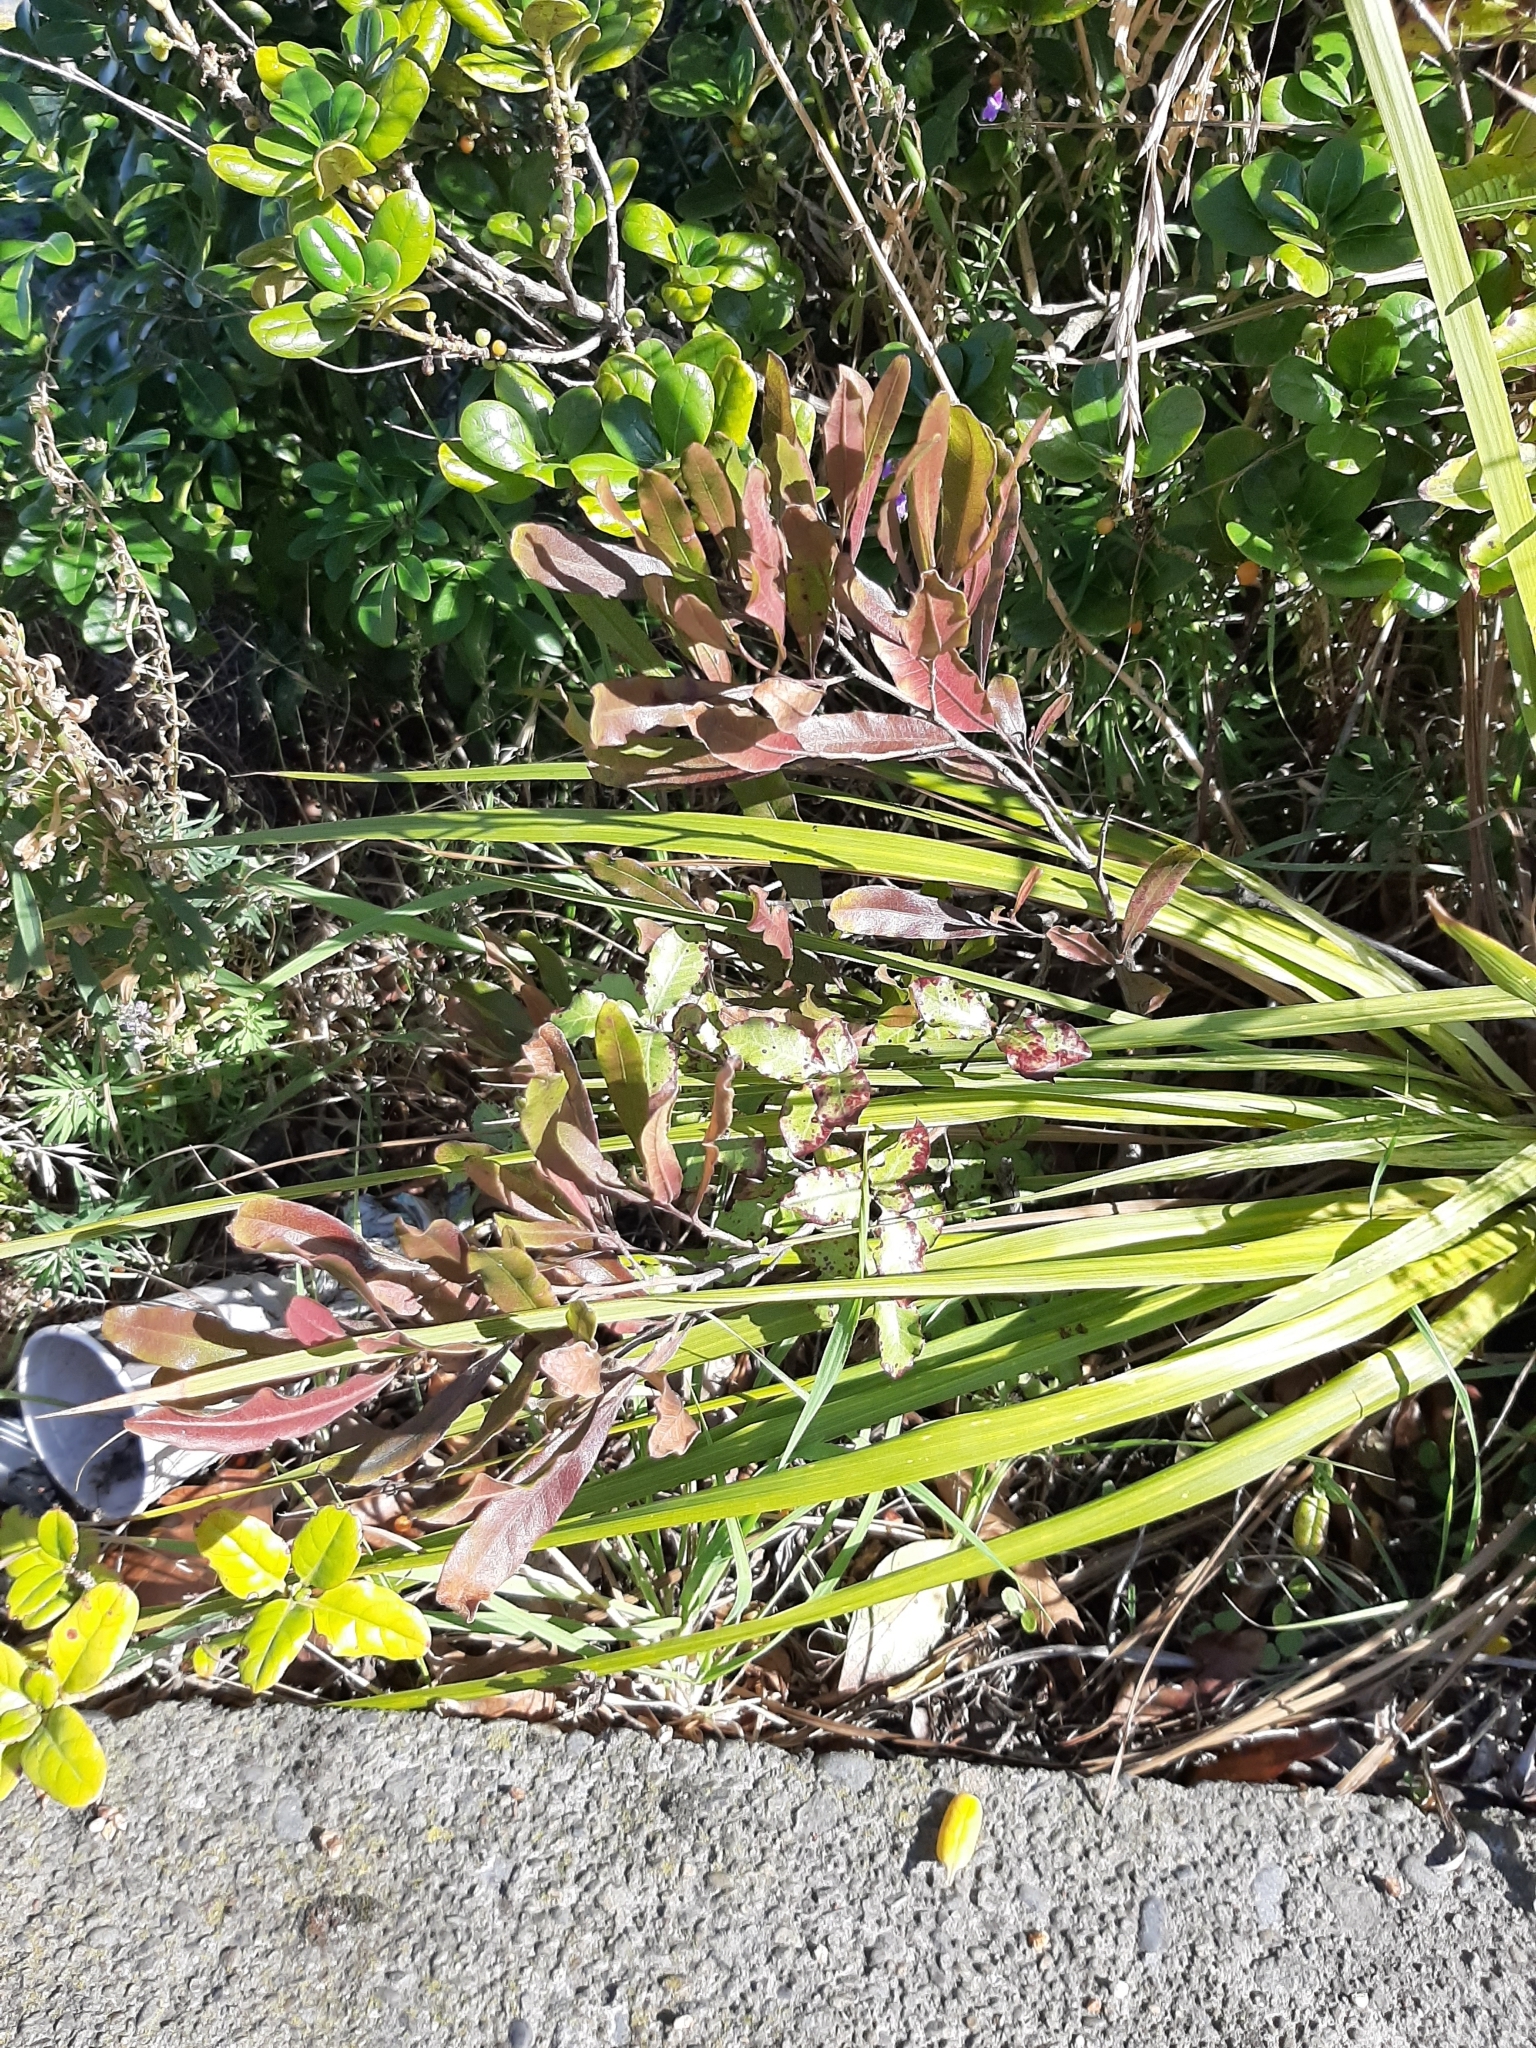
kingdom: Plantae
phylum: Tracheophyta
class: Magnoliopsida
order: Sapindales
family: Sapindaceae
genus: Dodonaea
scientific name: Dodonaea viscosa
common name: Hopbush
